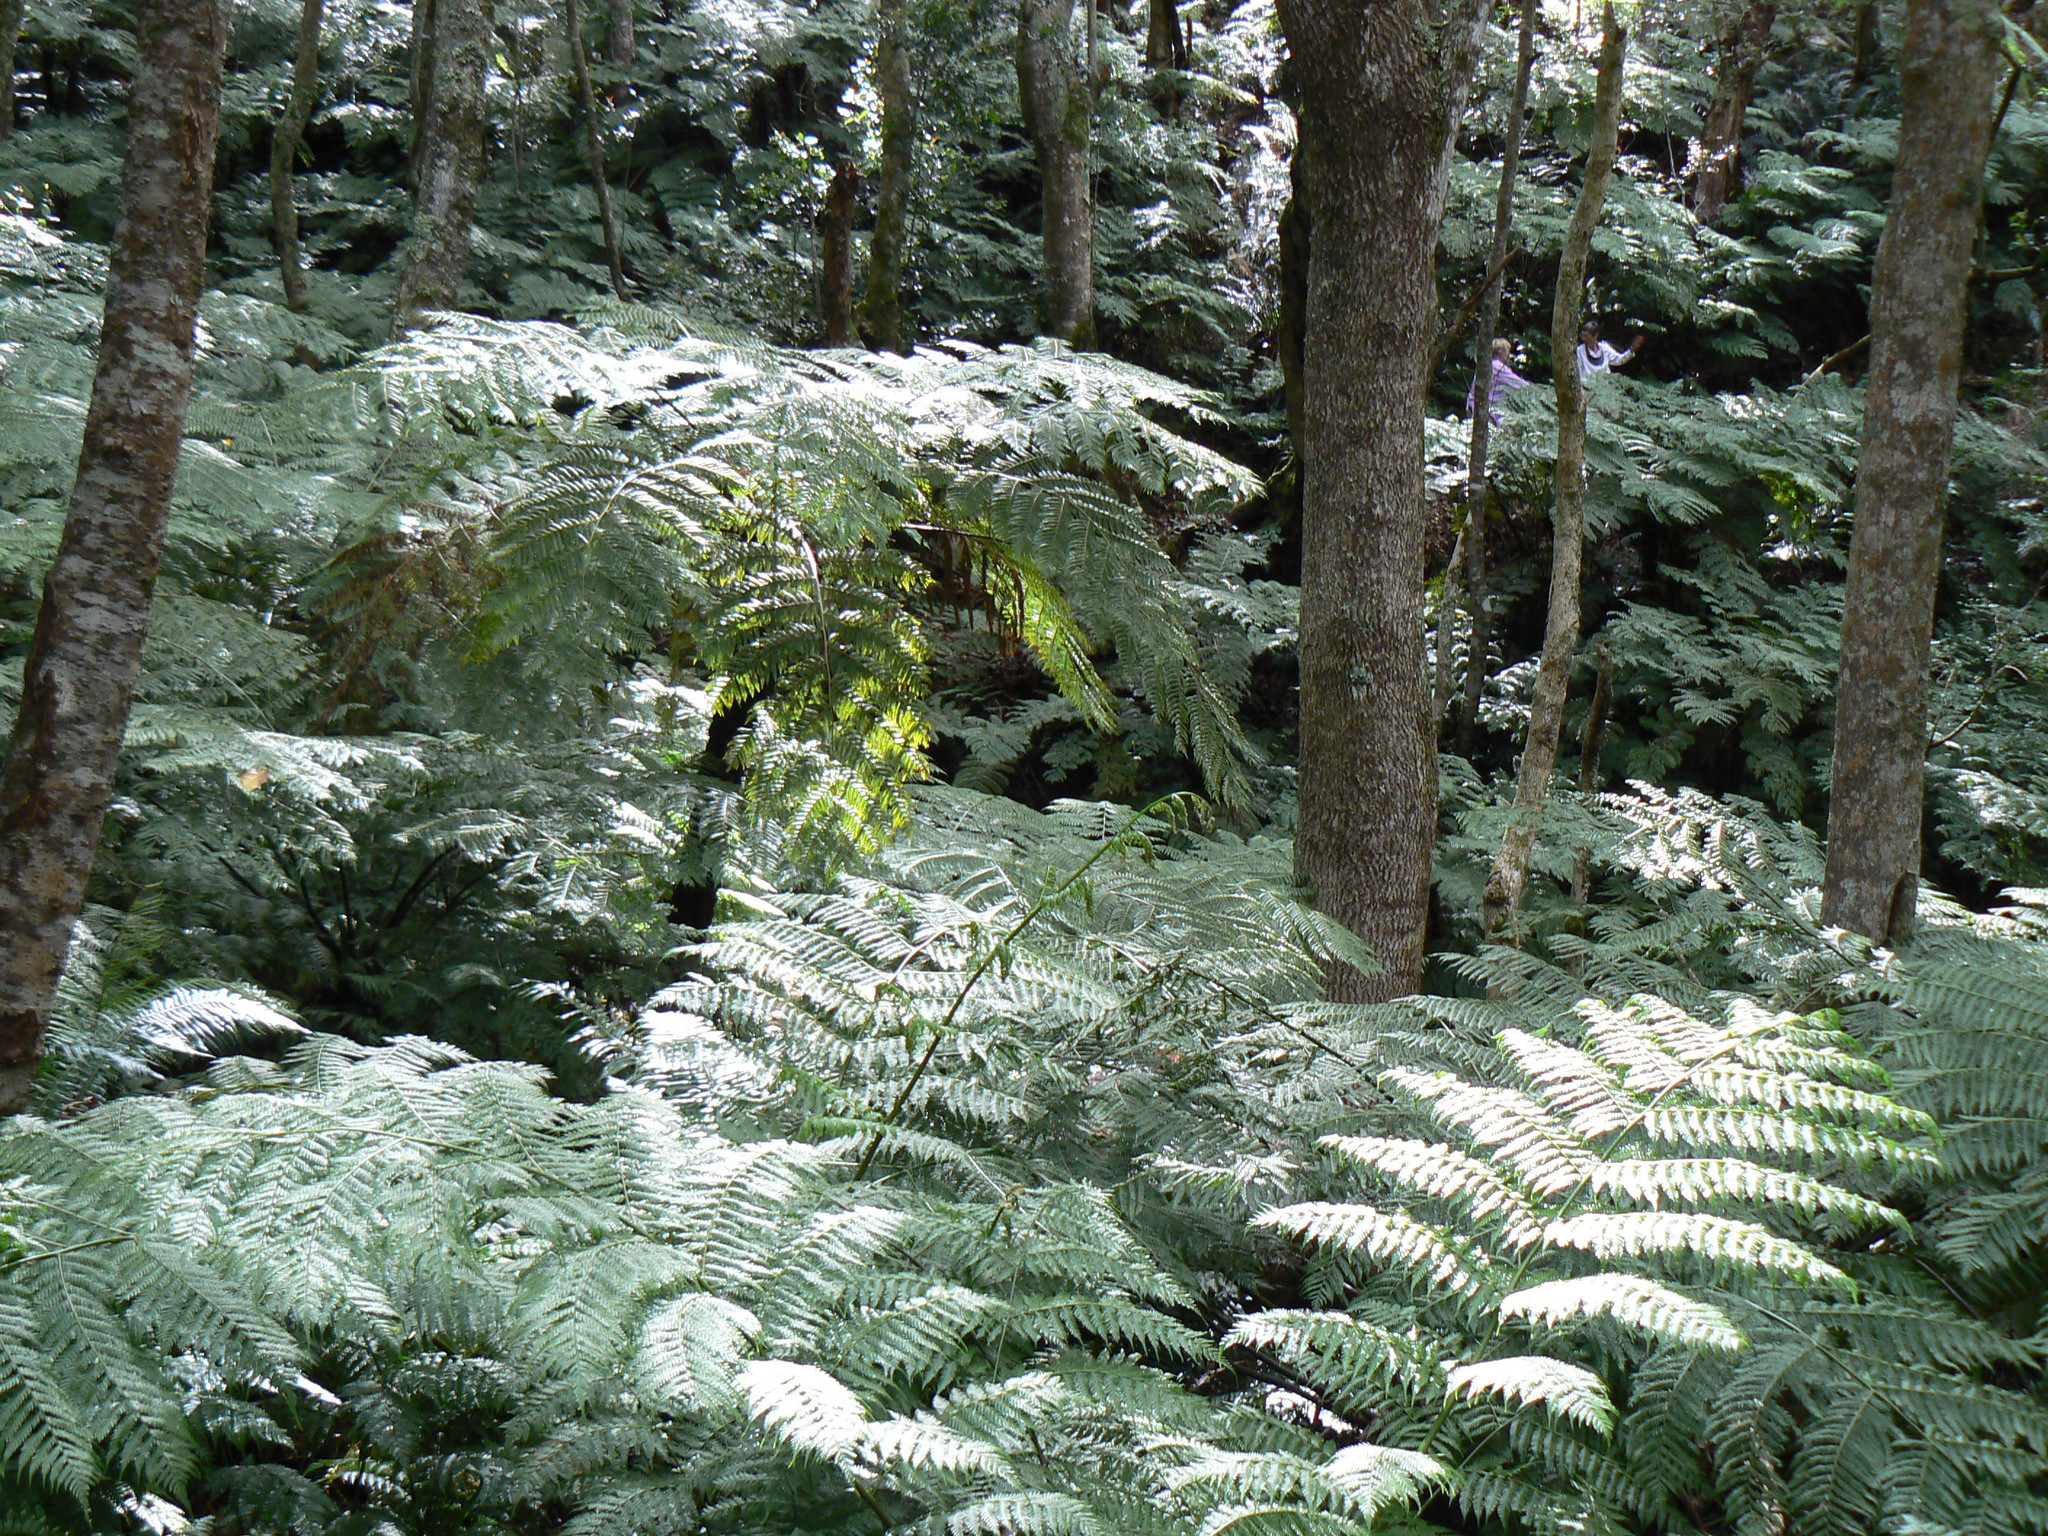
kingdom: Plantae
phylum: Tracheophyta
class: Polypodiopsida
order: Cyatheales
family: Cyatheaceae
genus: Gymnosphaera
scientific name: Gymnosphaera capensis
